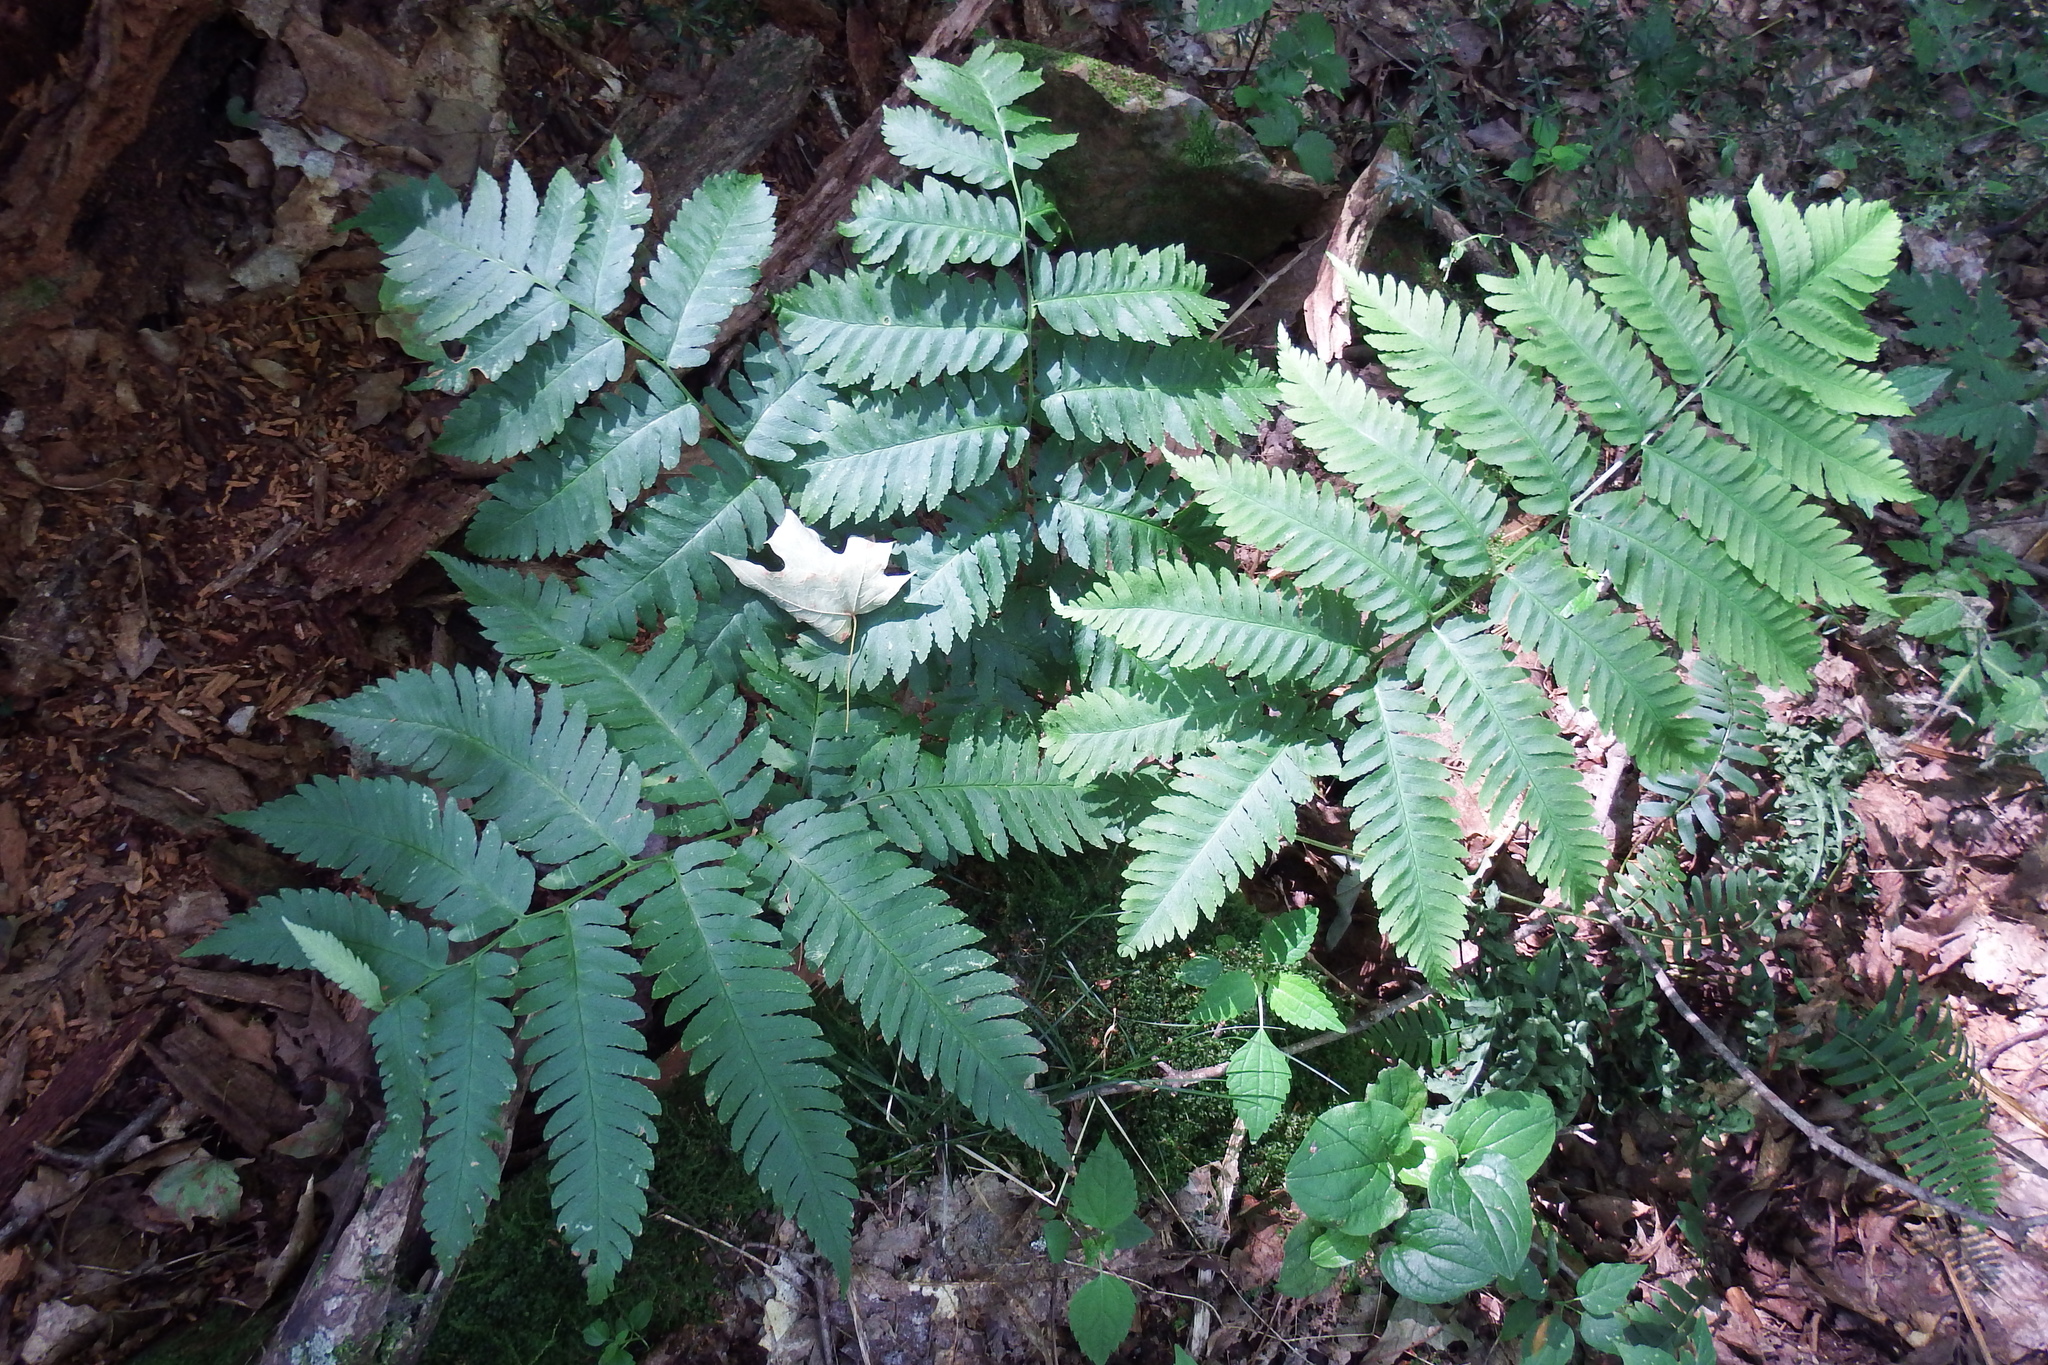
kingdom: Plantae
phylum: Tracheophyta
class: Polypodiopsida
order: Polypodiales
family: Dryopteridaceae
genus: Dryopteris
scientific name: Dryopteris goldieana
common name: Goldie's fern
